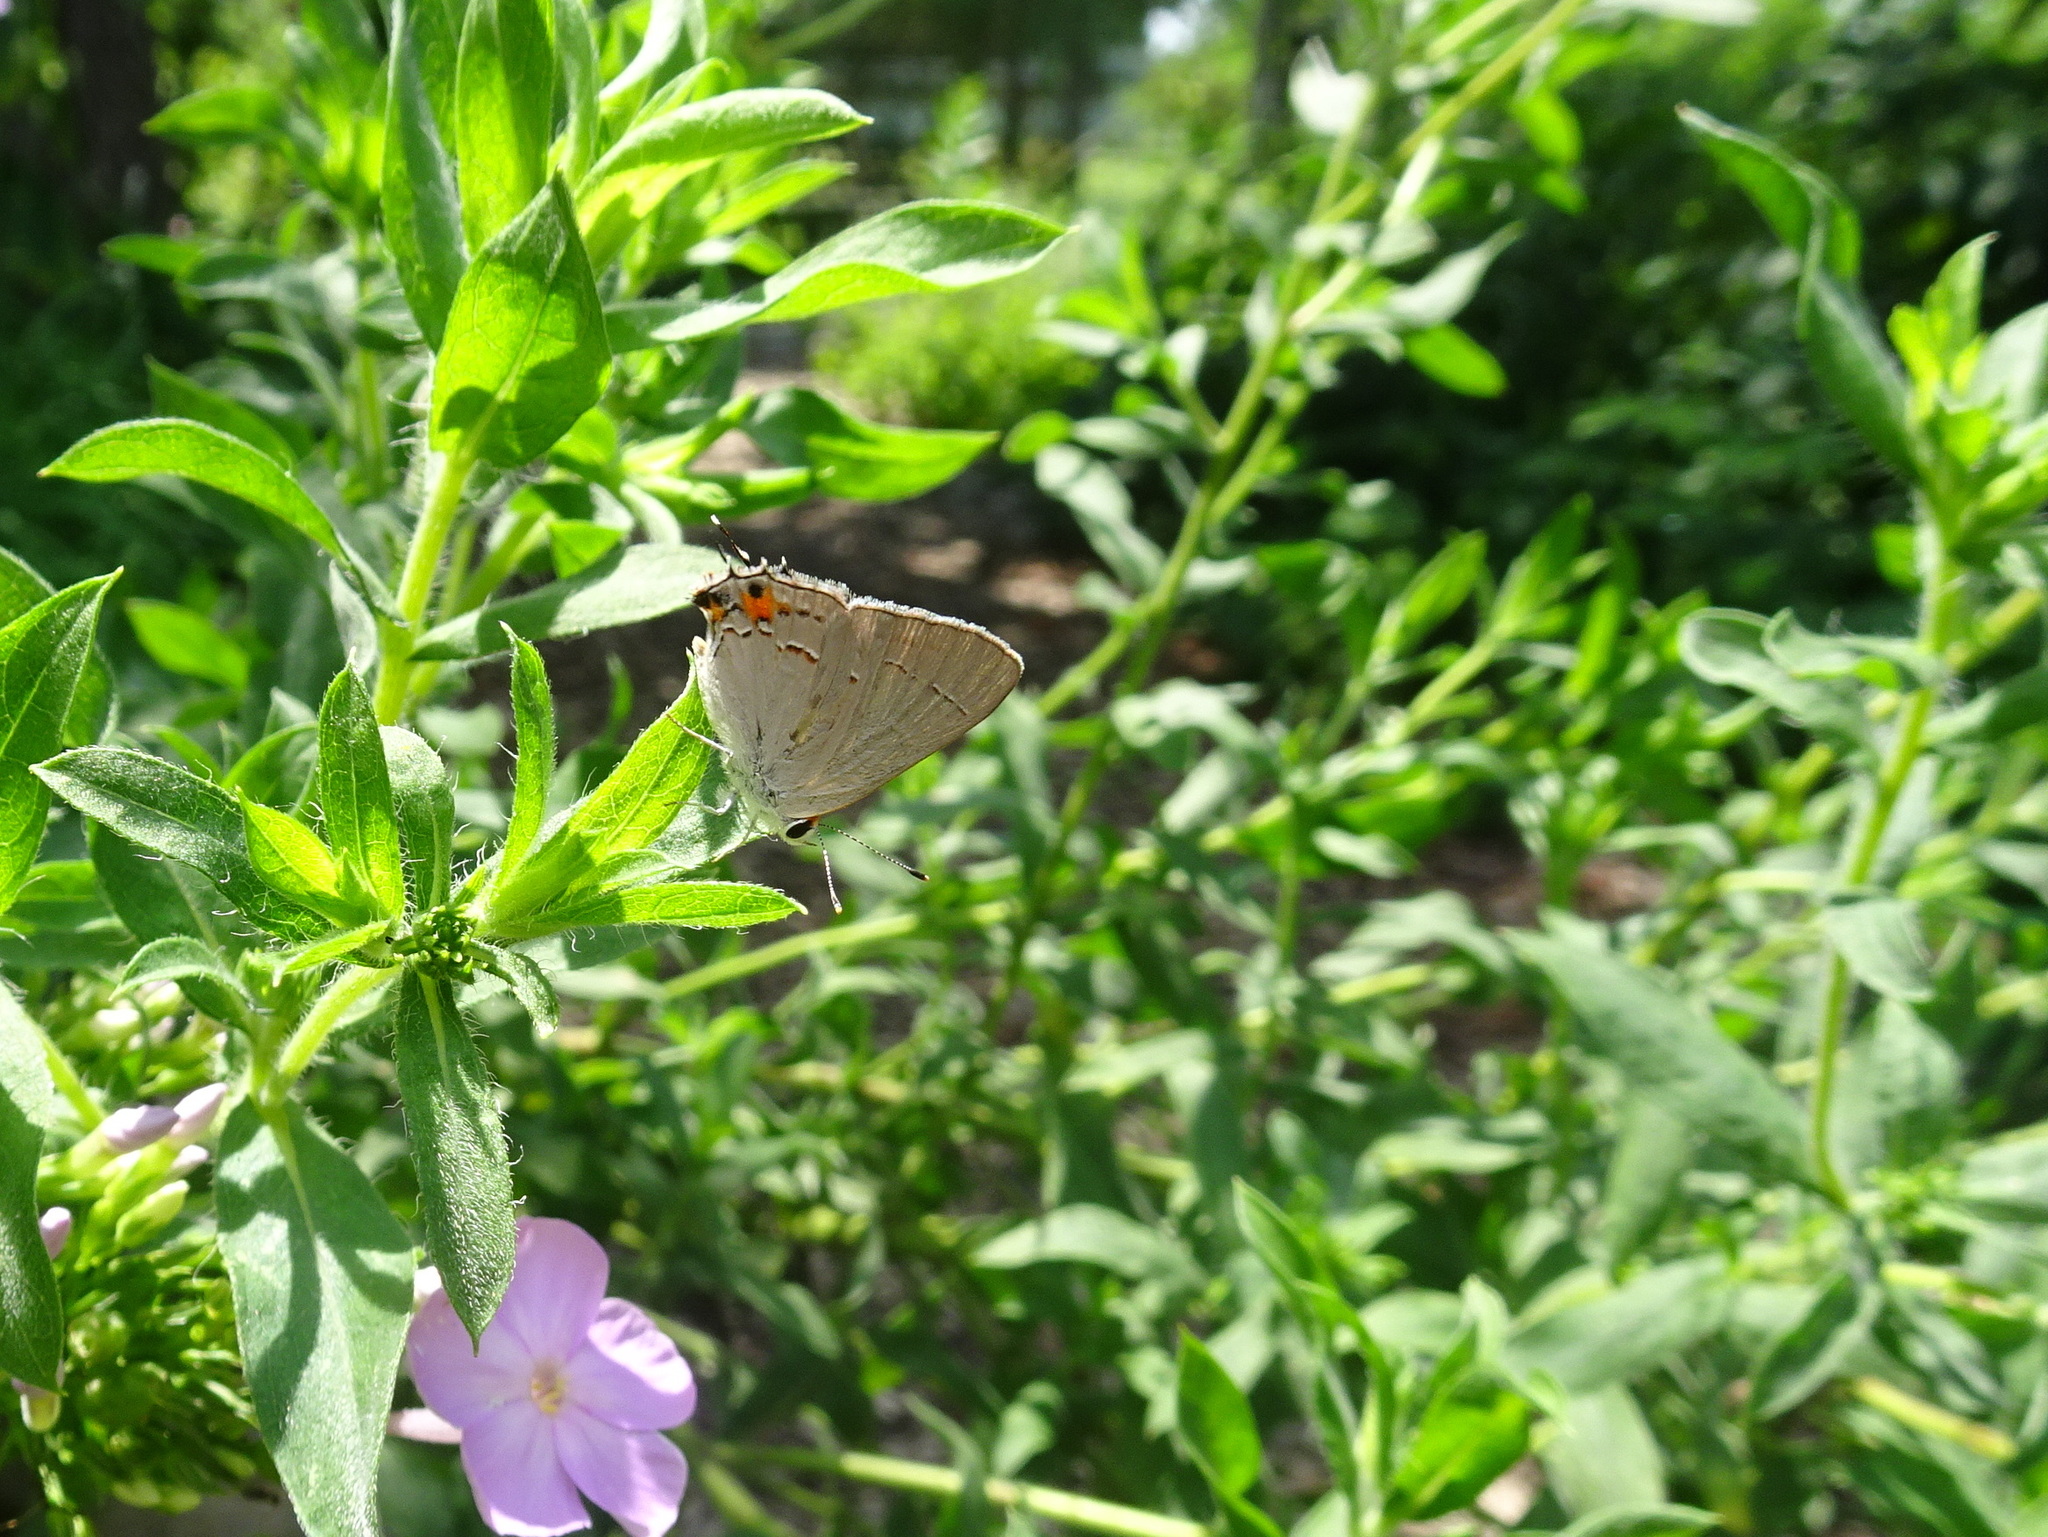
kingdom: Animalia
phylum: Arthropoda
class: Insecta
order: Lepidoptera
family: Lycaenidae
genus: Strymon
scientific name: Strymon melinus
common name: Gray hairstreak
